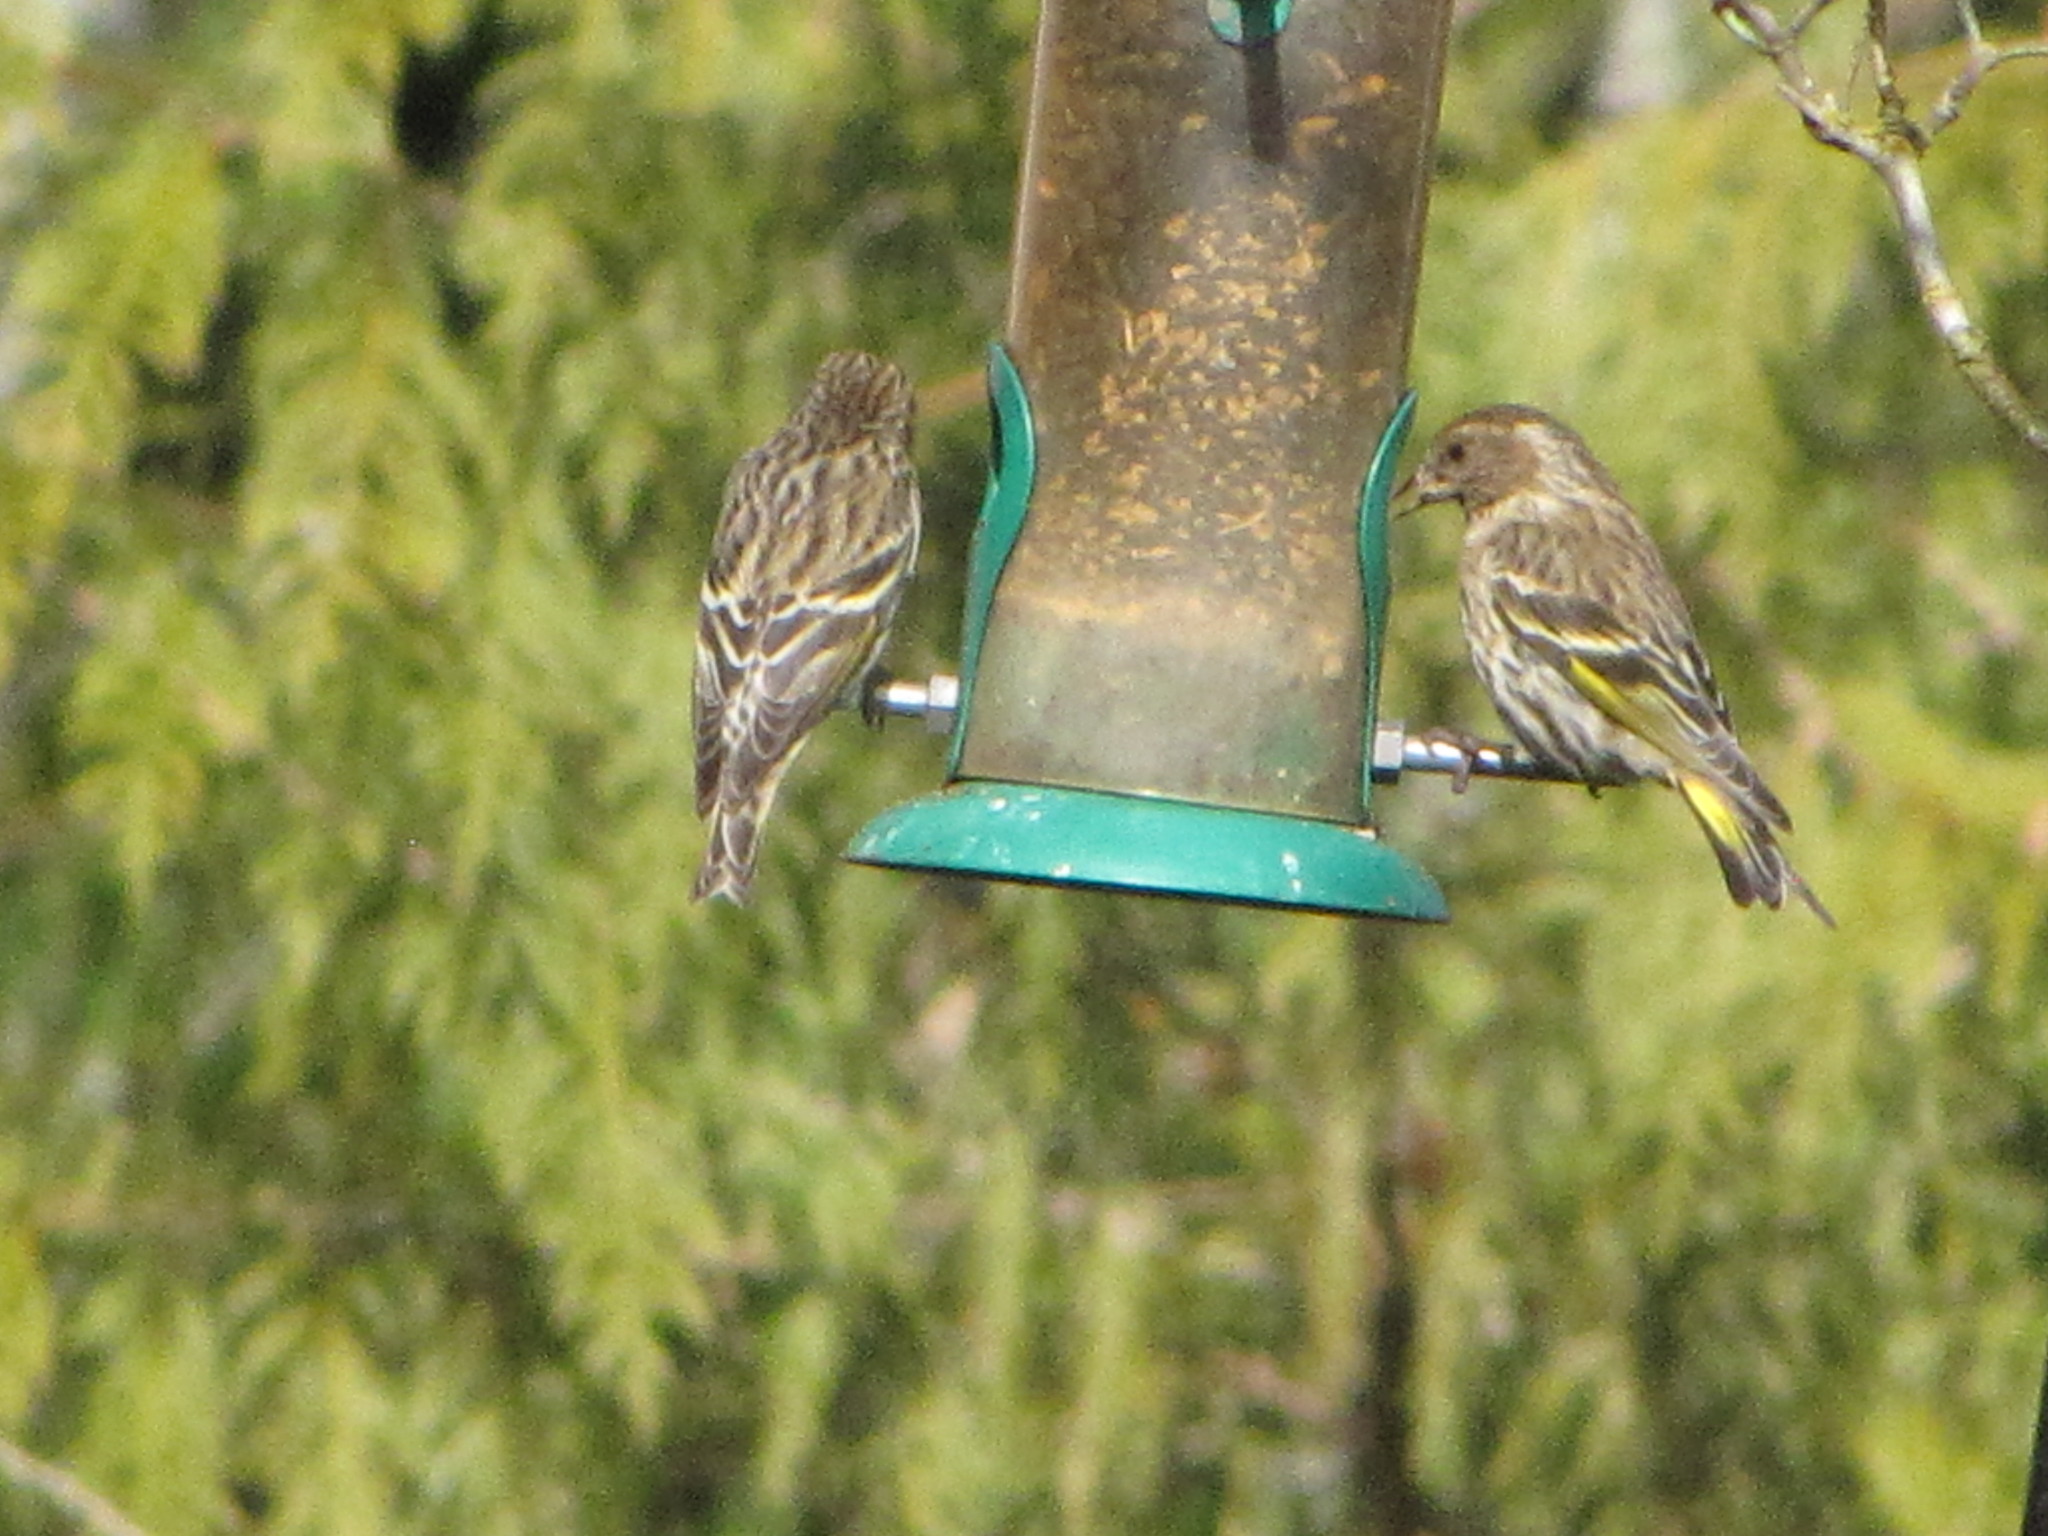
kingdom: Animalia
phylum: Chordata
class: Aves
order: Passeriformes
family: Fringillidae
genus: Spinus
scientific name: Spinus pinus
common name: Pine siskin
